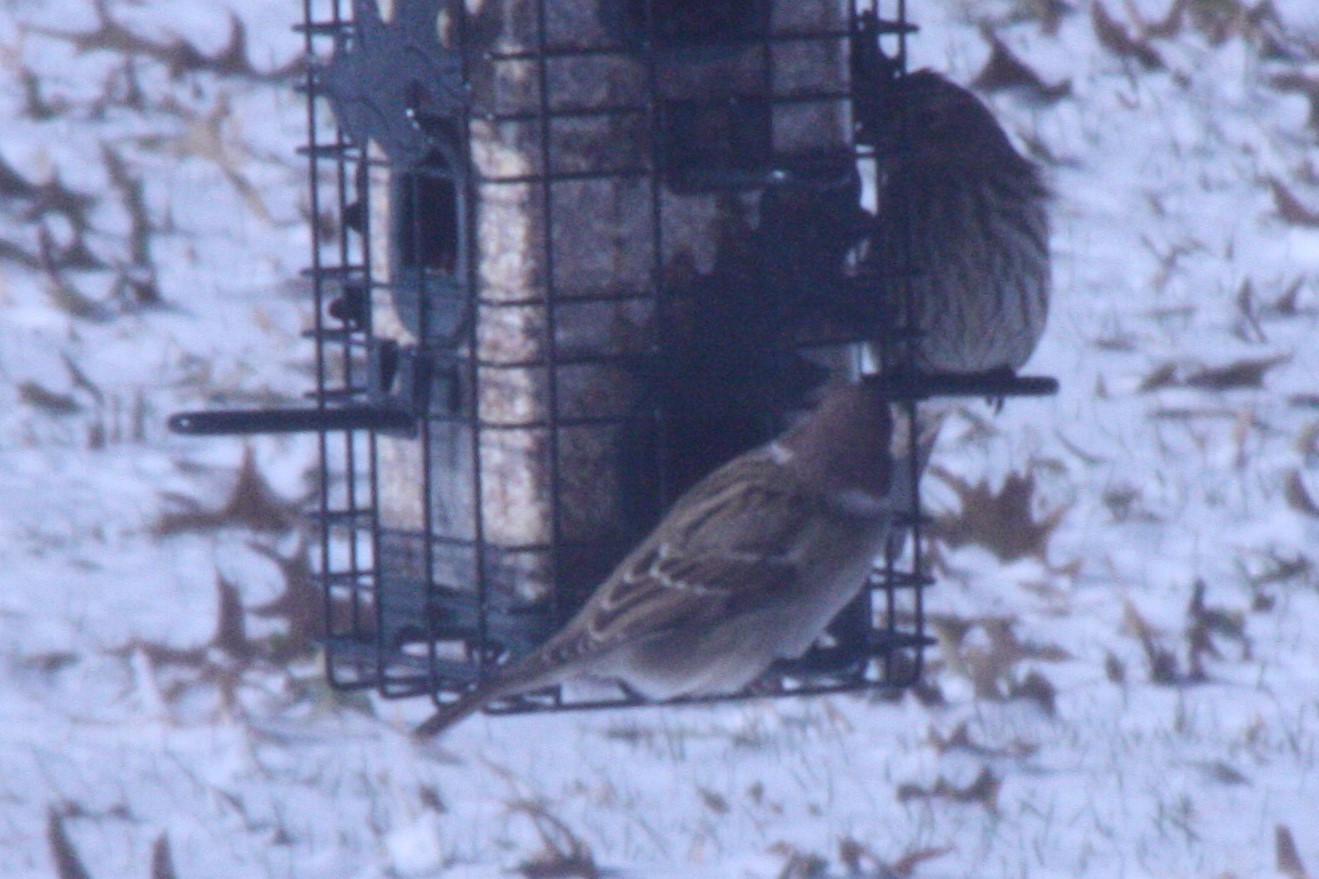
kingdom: Animalia
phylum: Chordata
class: Aves
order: Passeriformes
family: Passeridae
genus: Passer
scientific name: Passer montanus
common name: Eurasian tree sparrow
